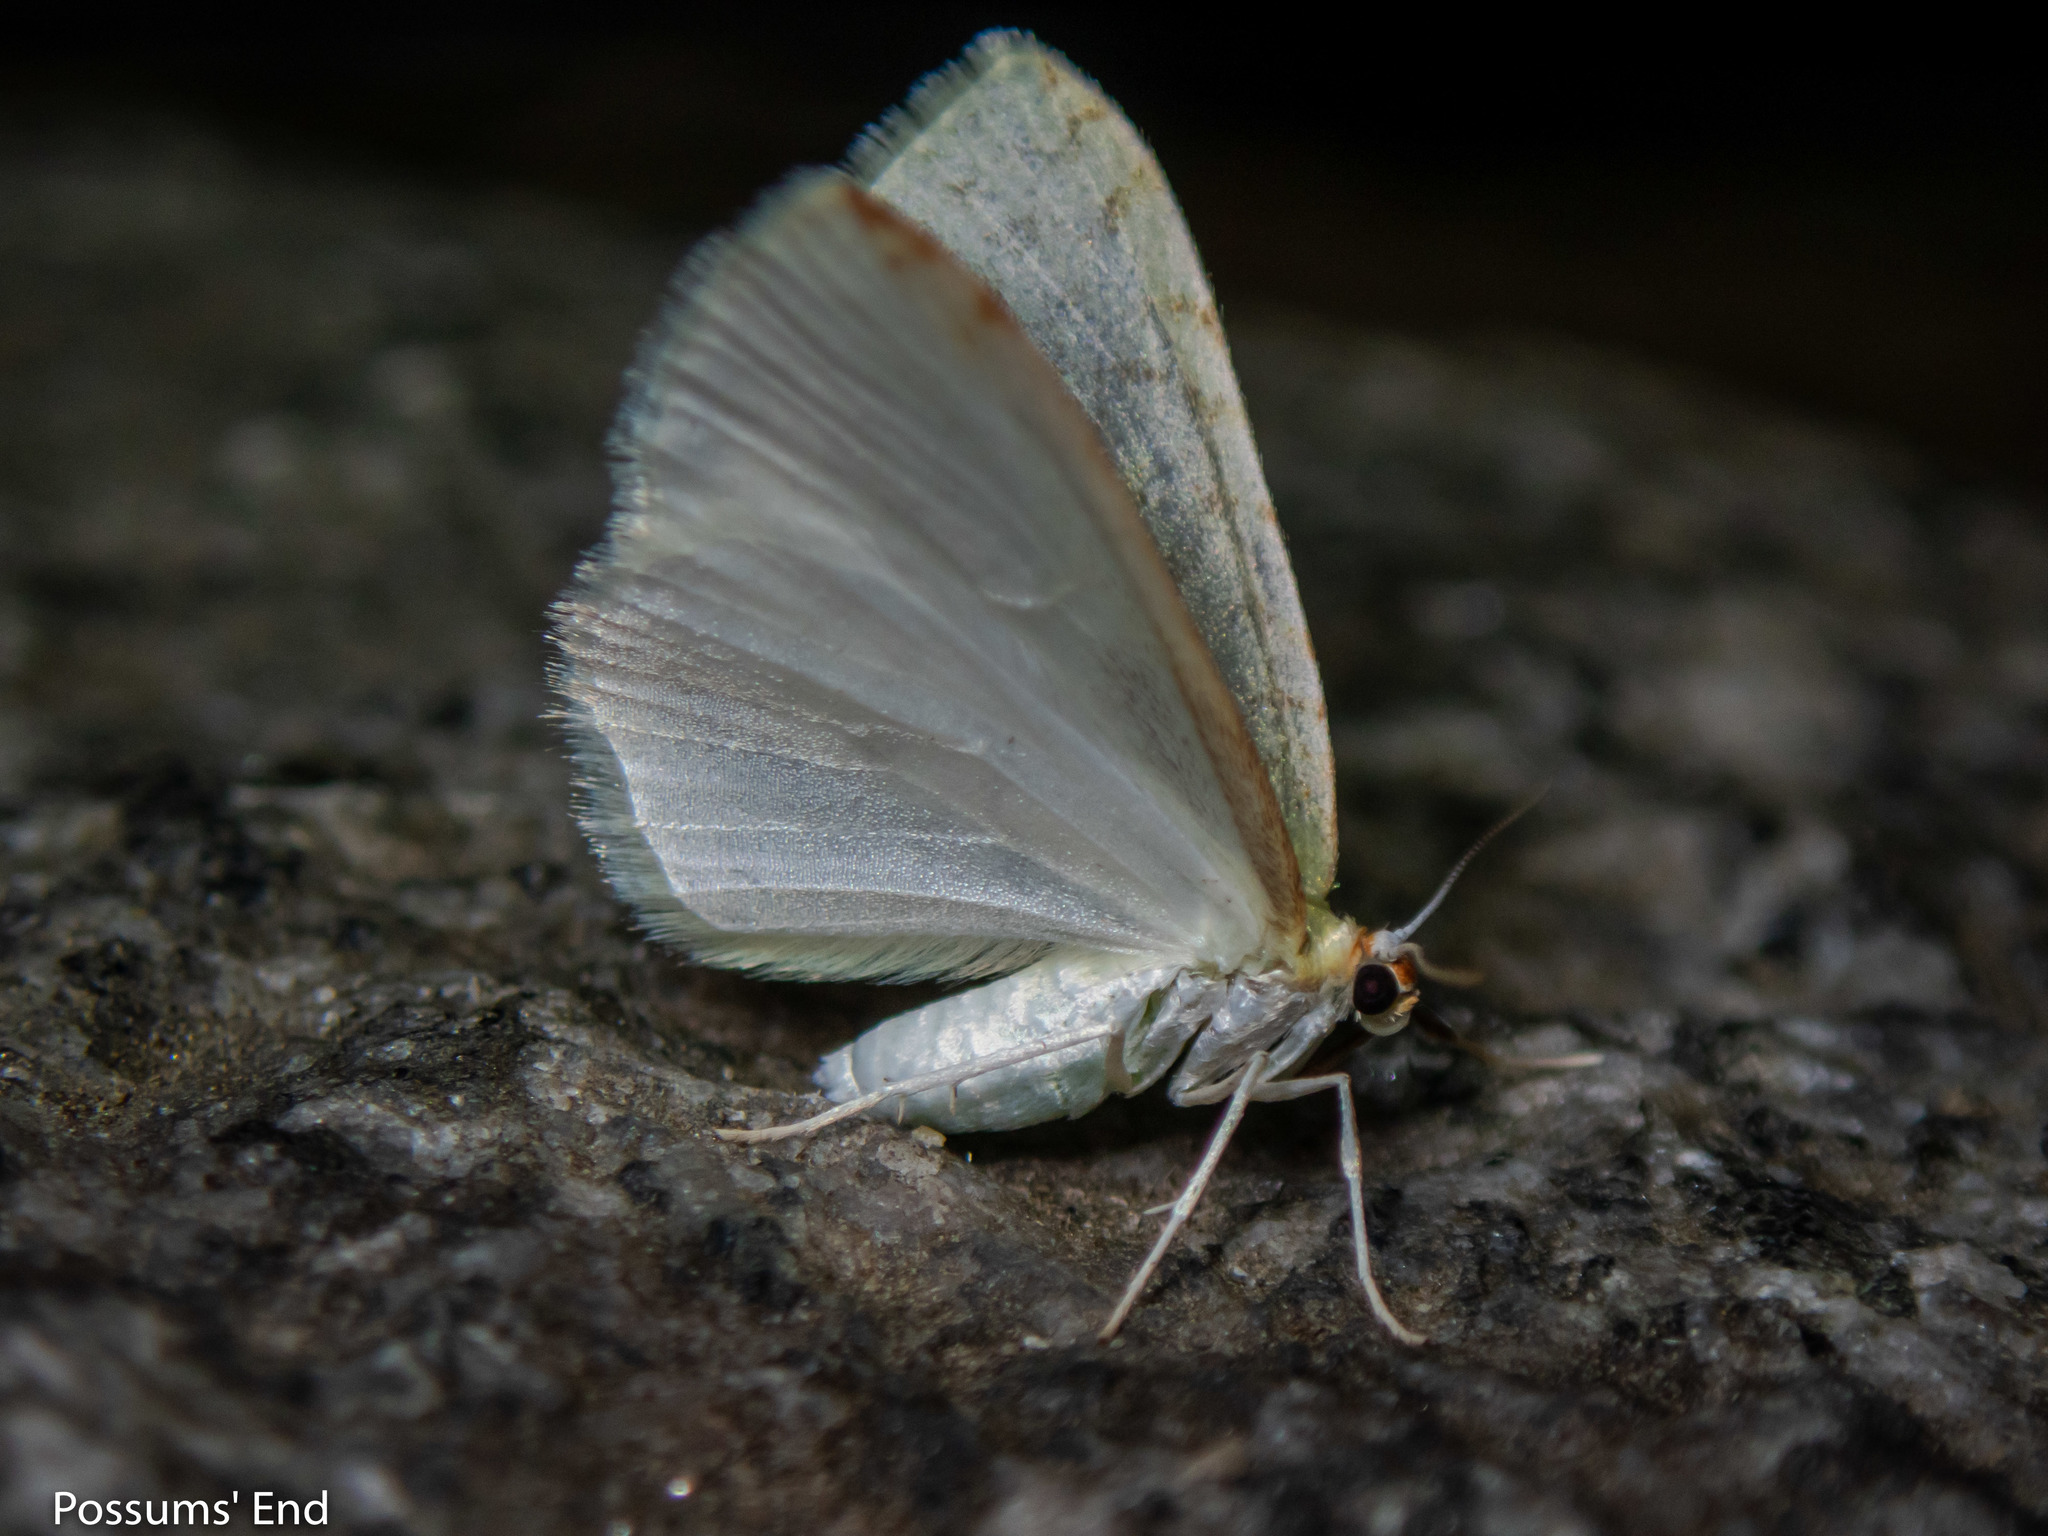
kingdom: Animalia
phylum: Arthropoda
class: Insecta
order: Lepidoptera
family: Geometridae
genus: Epiphryne
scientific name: Epiphryne undosata
